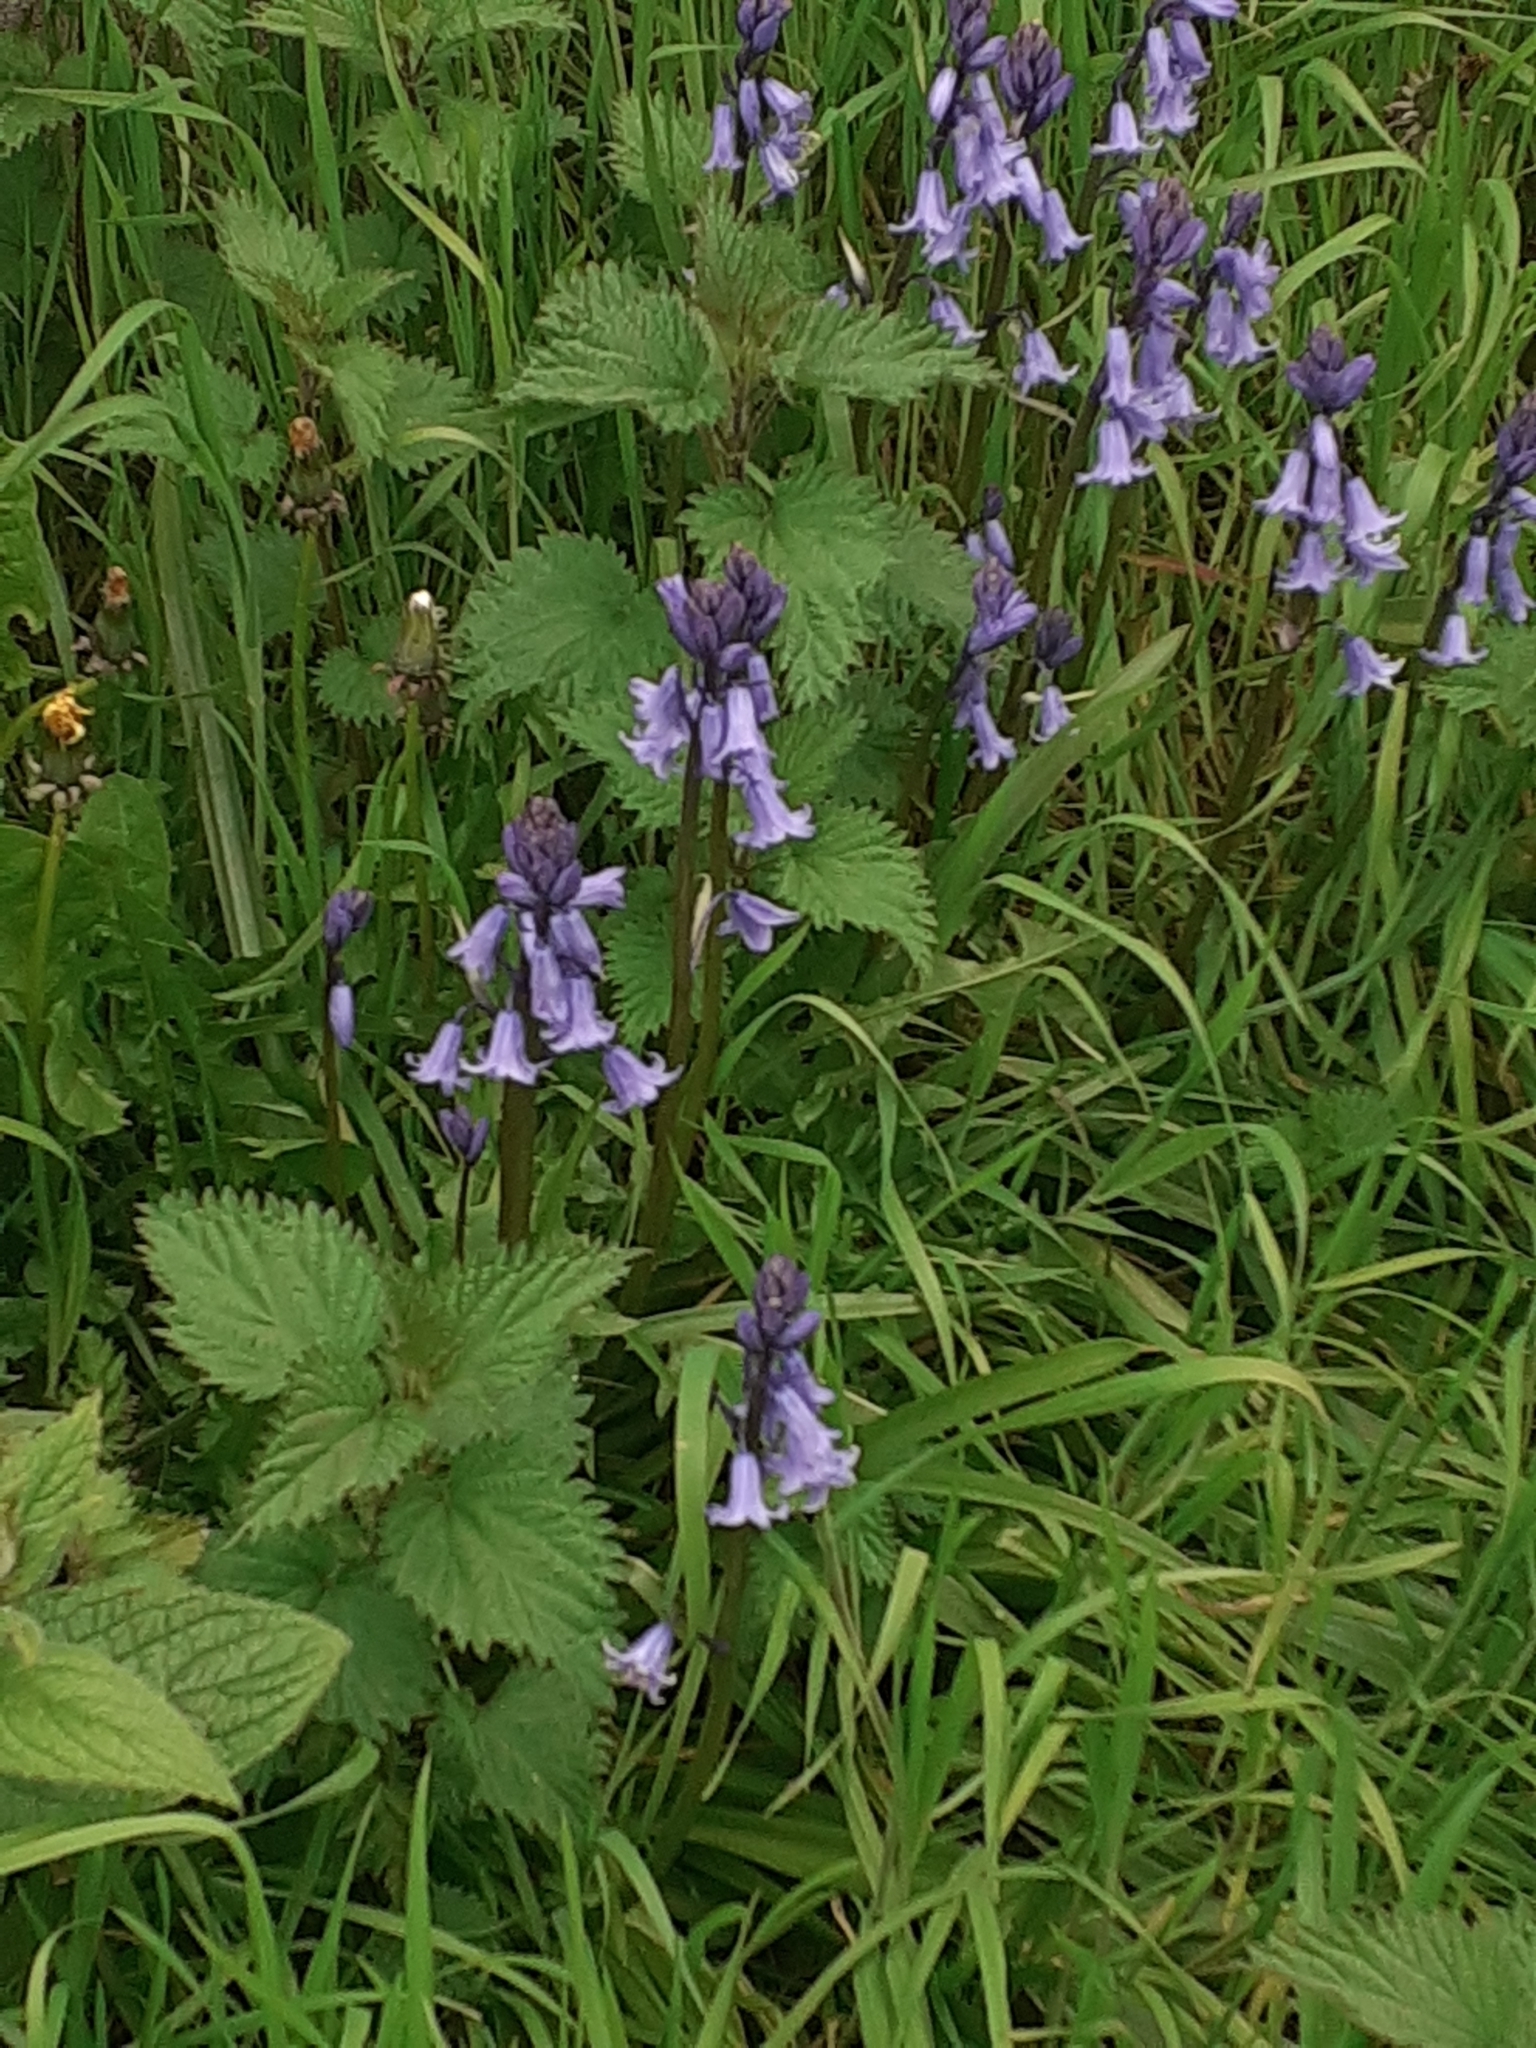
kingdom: Plantae
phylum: Tracheophyta
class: Liliopsida
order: Asparagales
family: Asparagaceae
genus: Hyacinthoides
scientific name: Hyacinthoides massartiana
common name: Hyacinthoides
